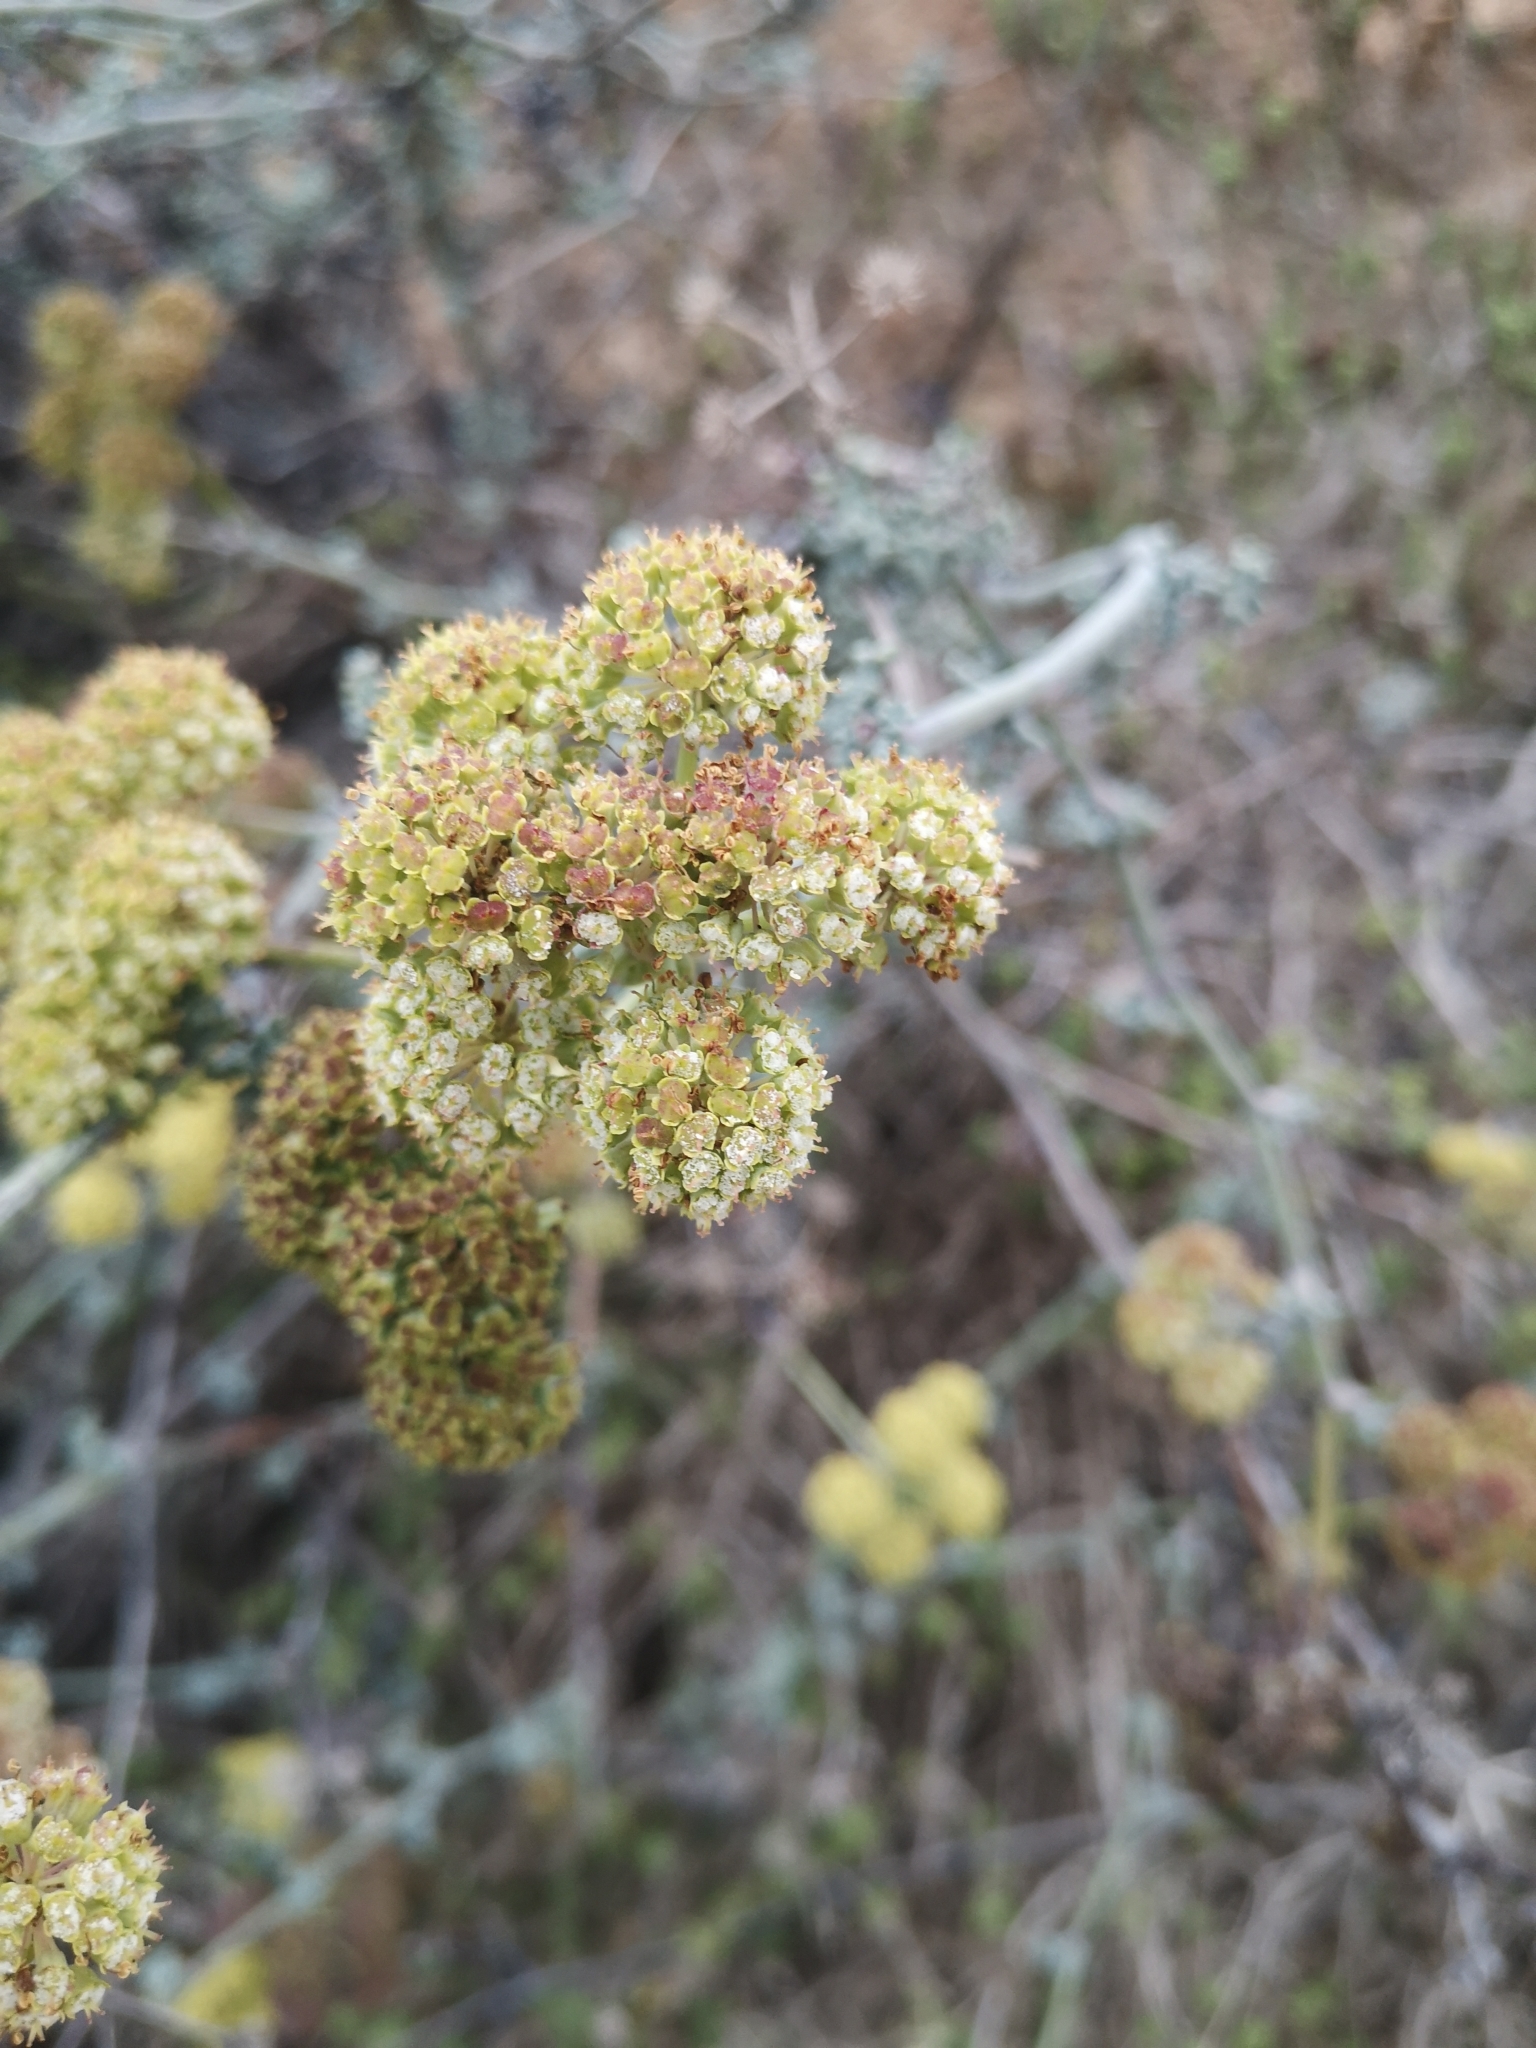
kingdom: Plantae
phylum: Tracheophyta
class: Magnoliopsida
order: Apiales
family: Apiaceae
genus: Eremocharis
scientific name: Eremocharis fruticosa
